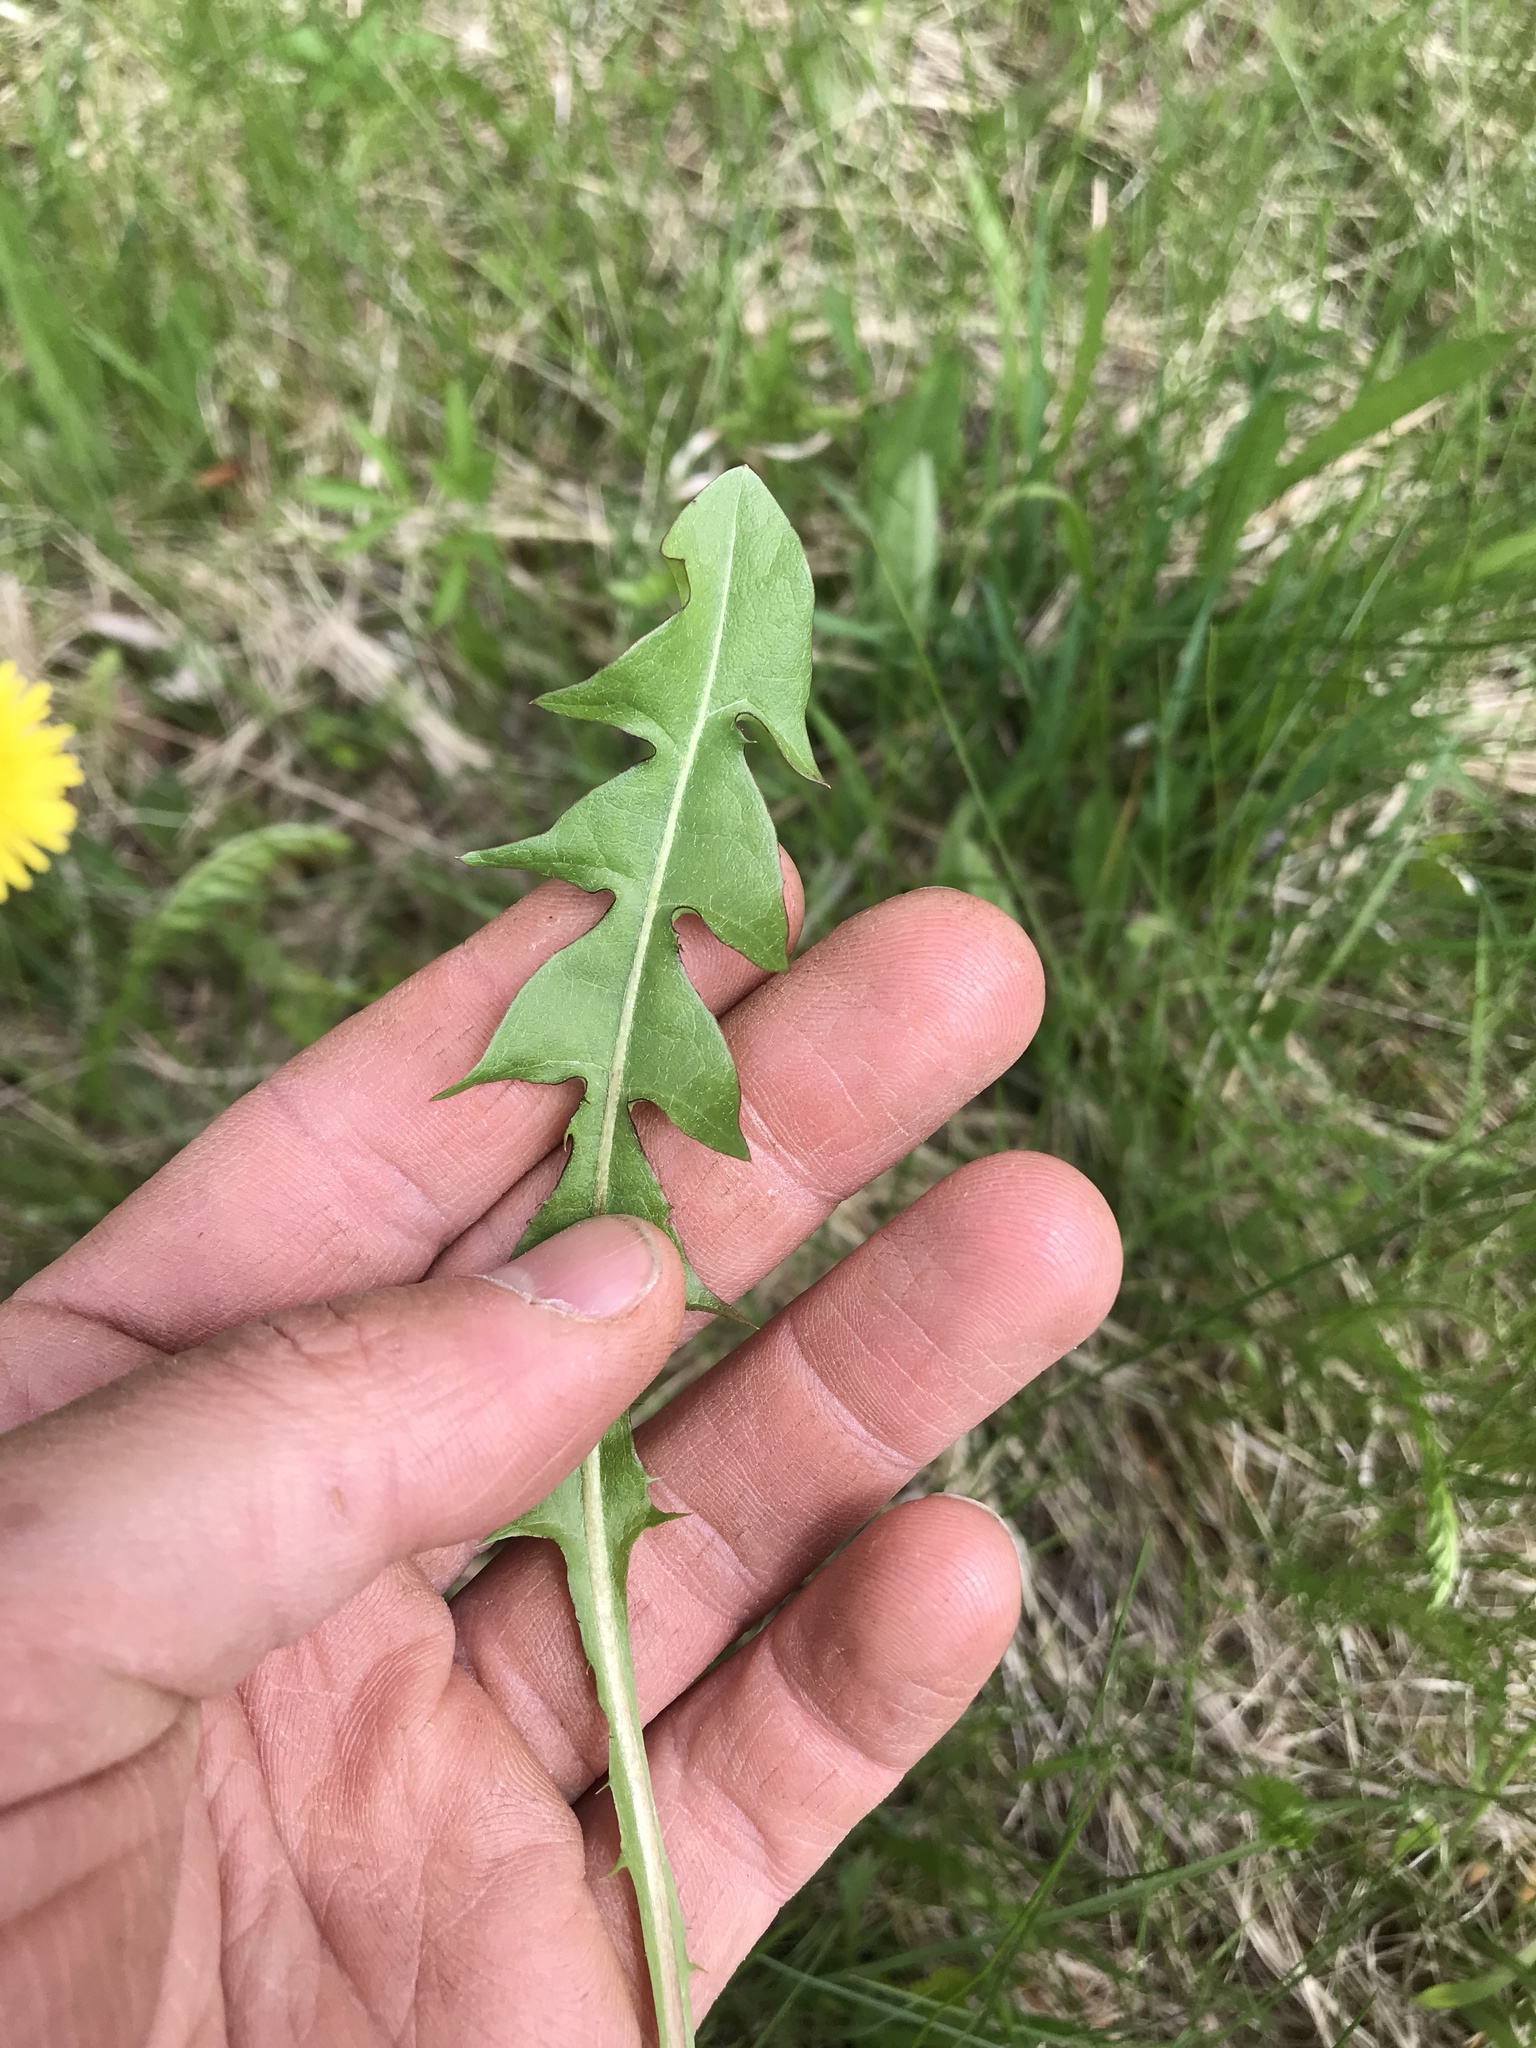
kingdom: Plantae
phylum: Tracheophyta
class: Magnoliopsida
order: Asterales
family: Asteraceae
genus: Taraxacum
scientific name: Taraxacum officinale
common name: Common dandelion
